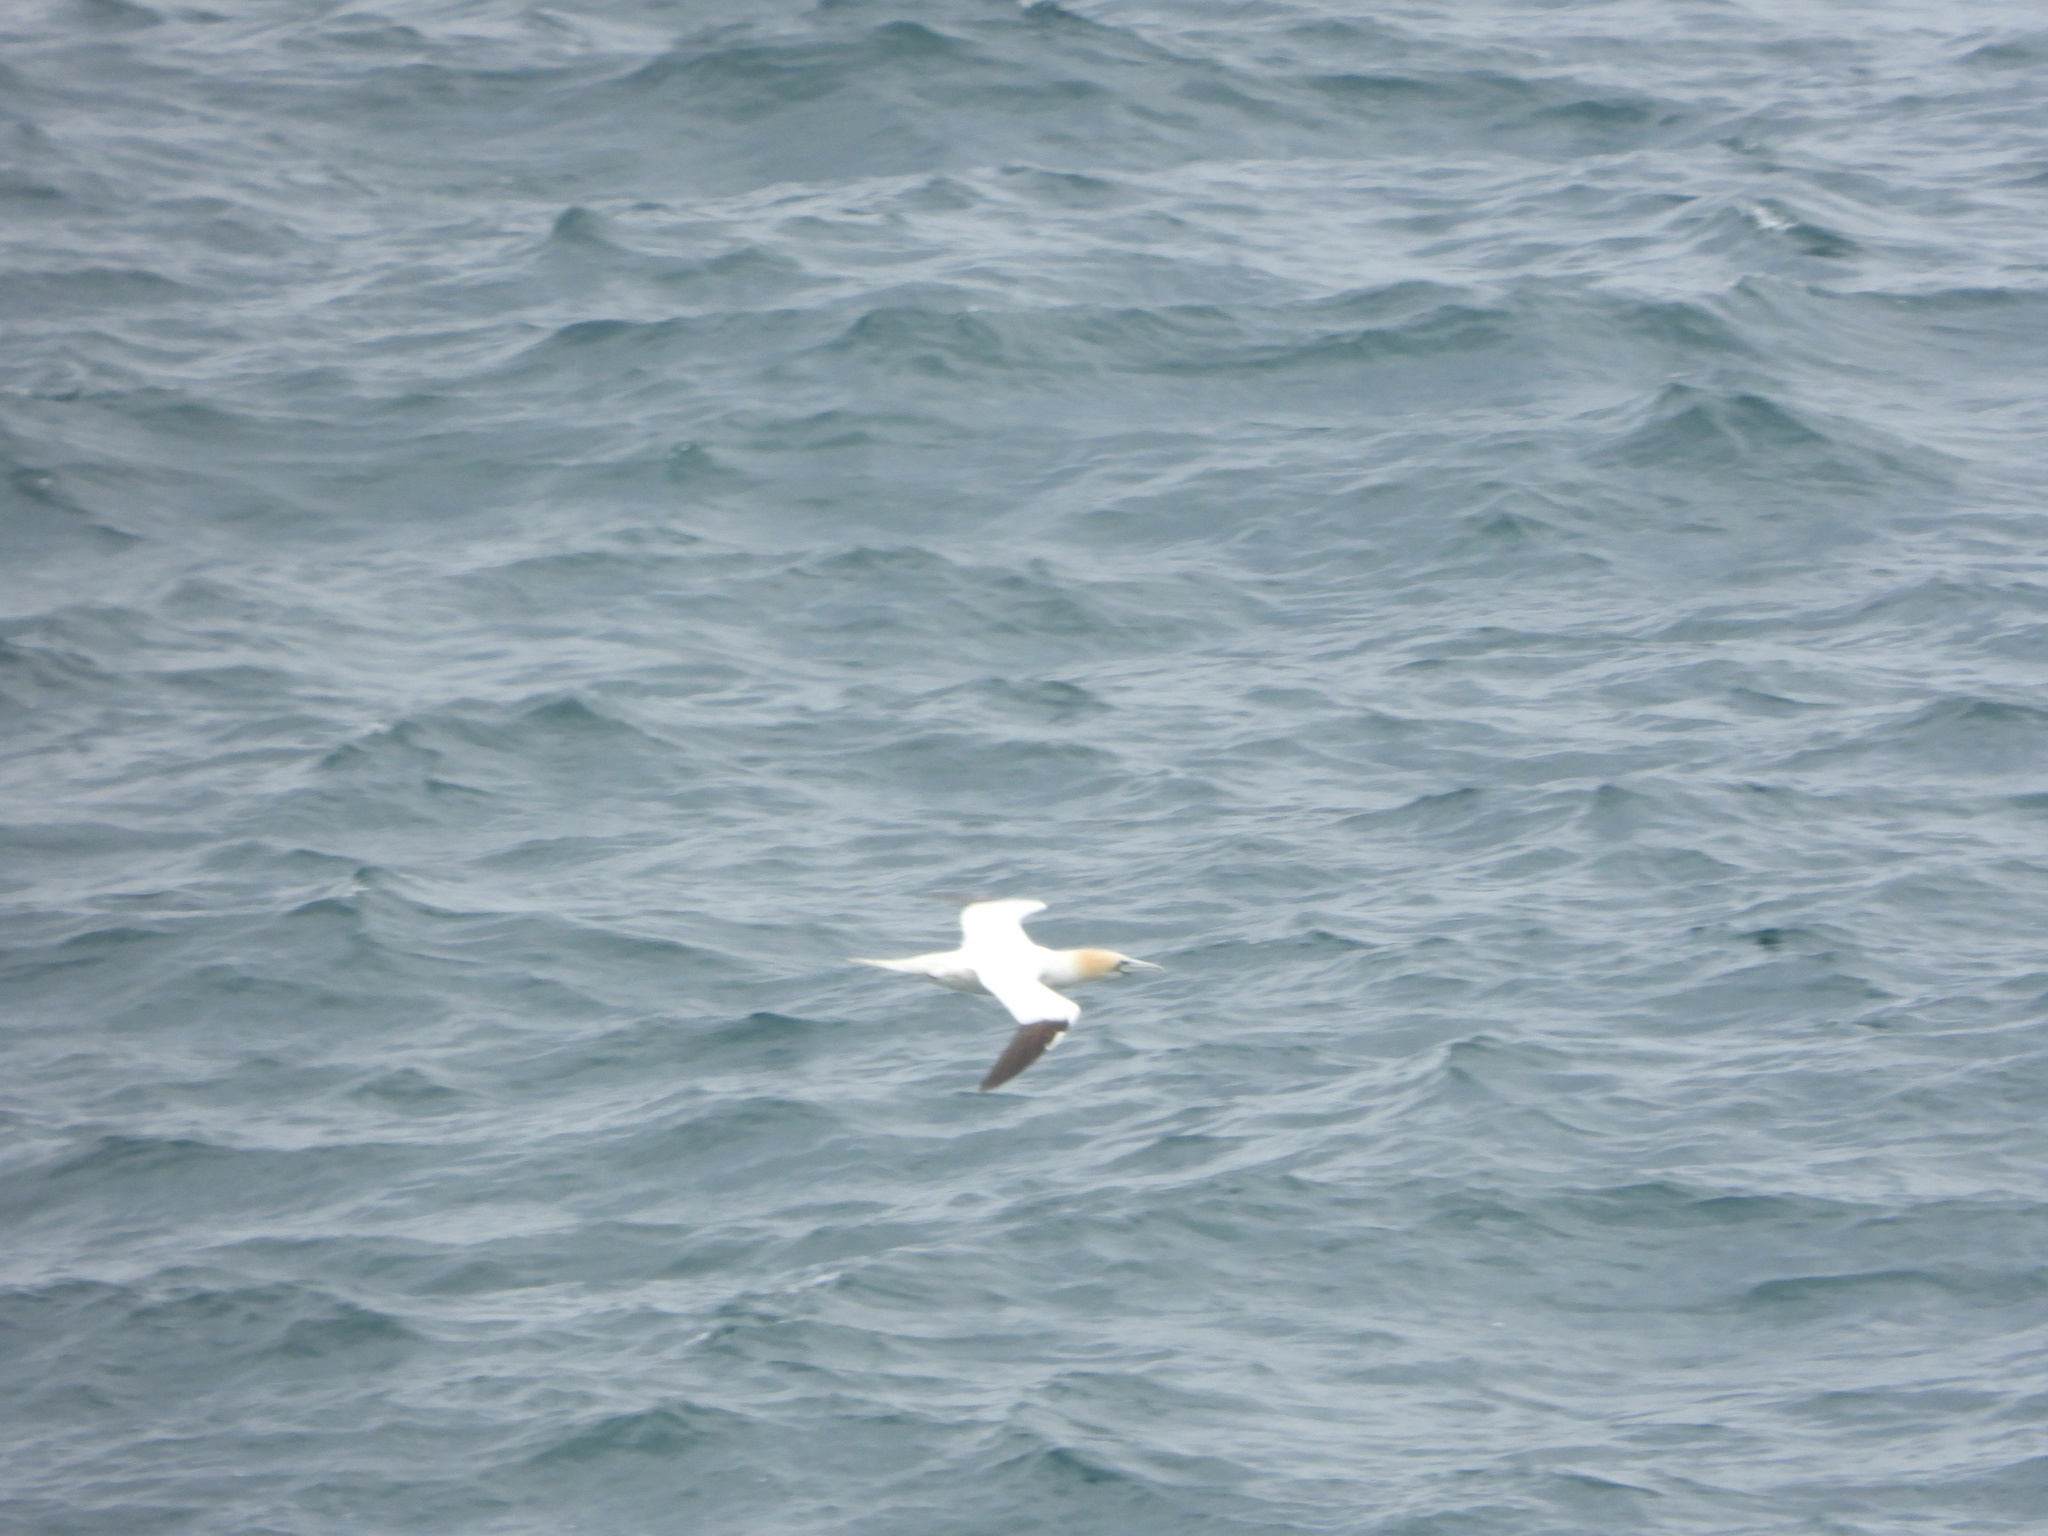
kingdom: Animalia
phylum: Chordata
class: Aves
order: Suliformes
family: Sulidae
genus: Morus
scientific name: Morus bassanus
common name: Northern gannet
